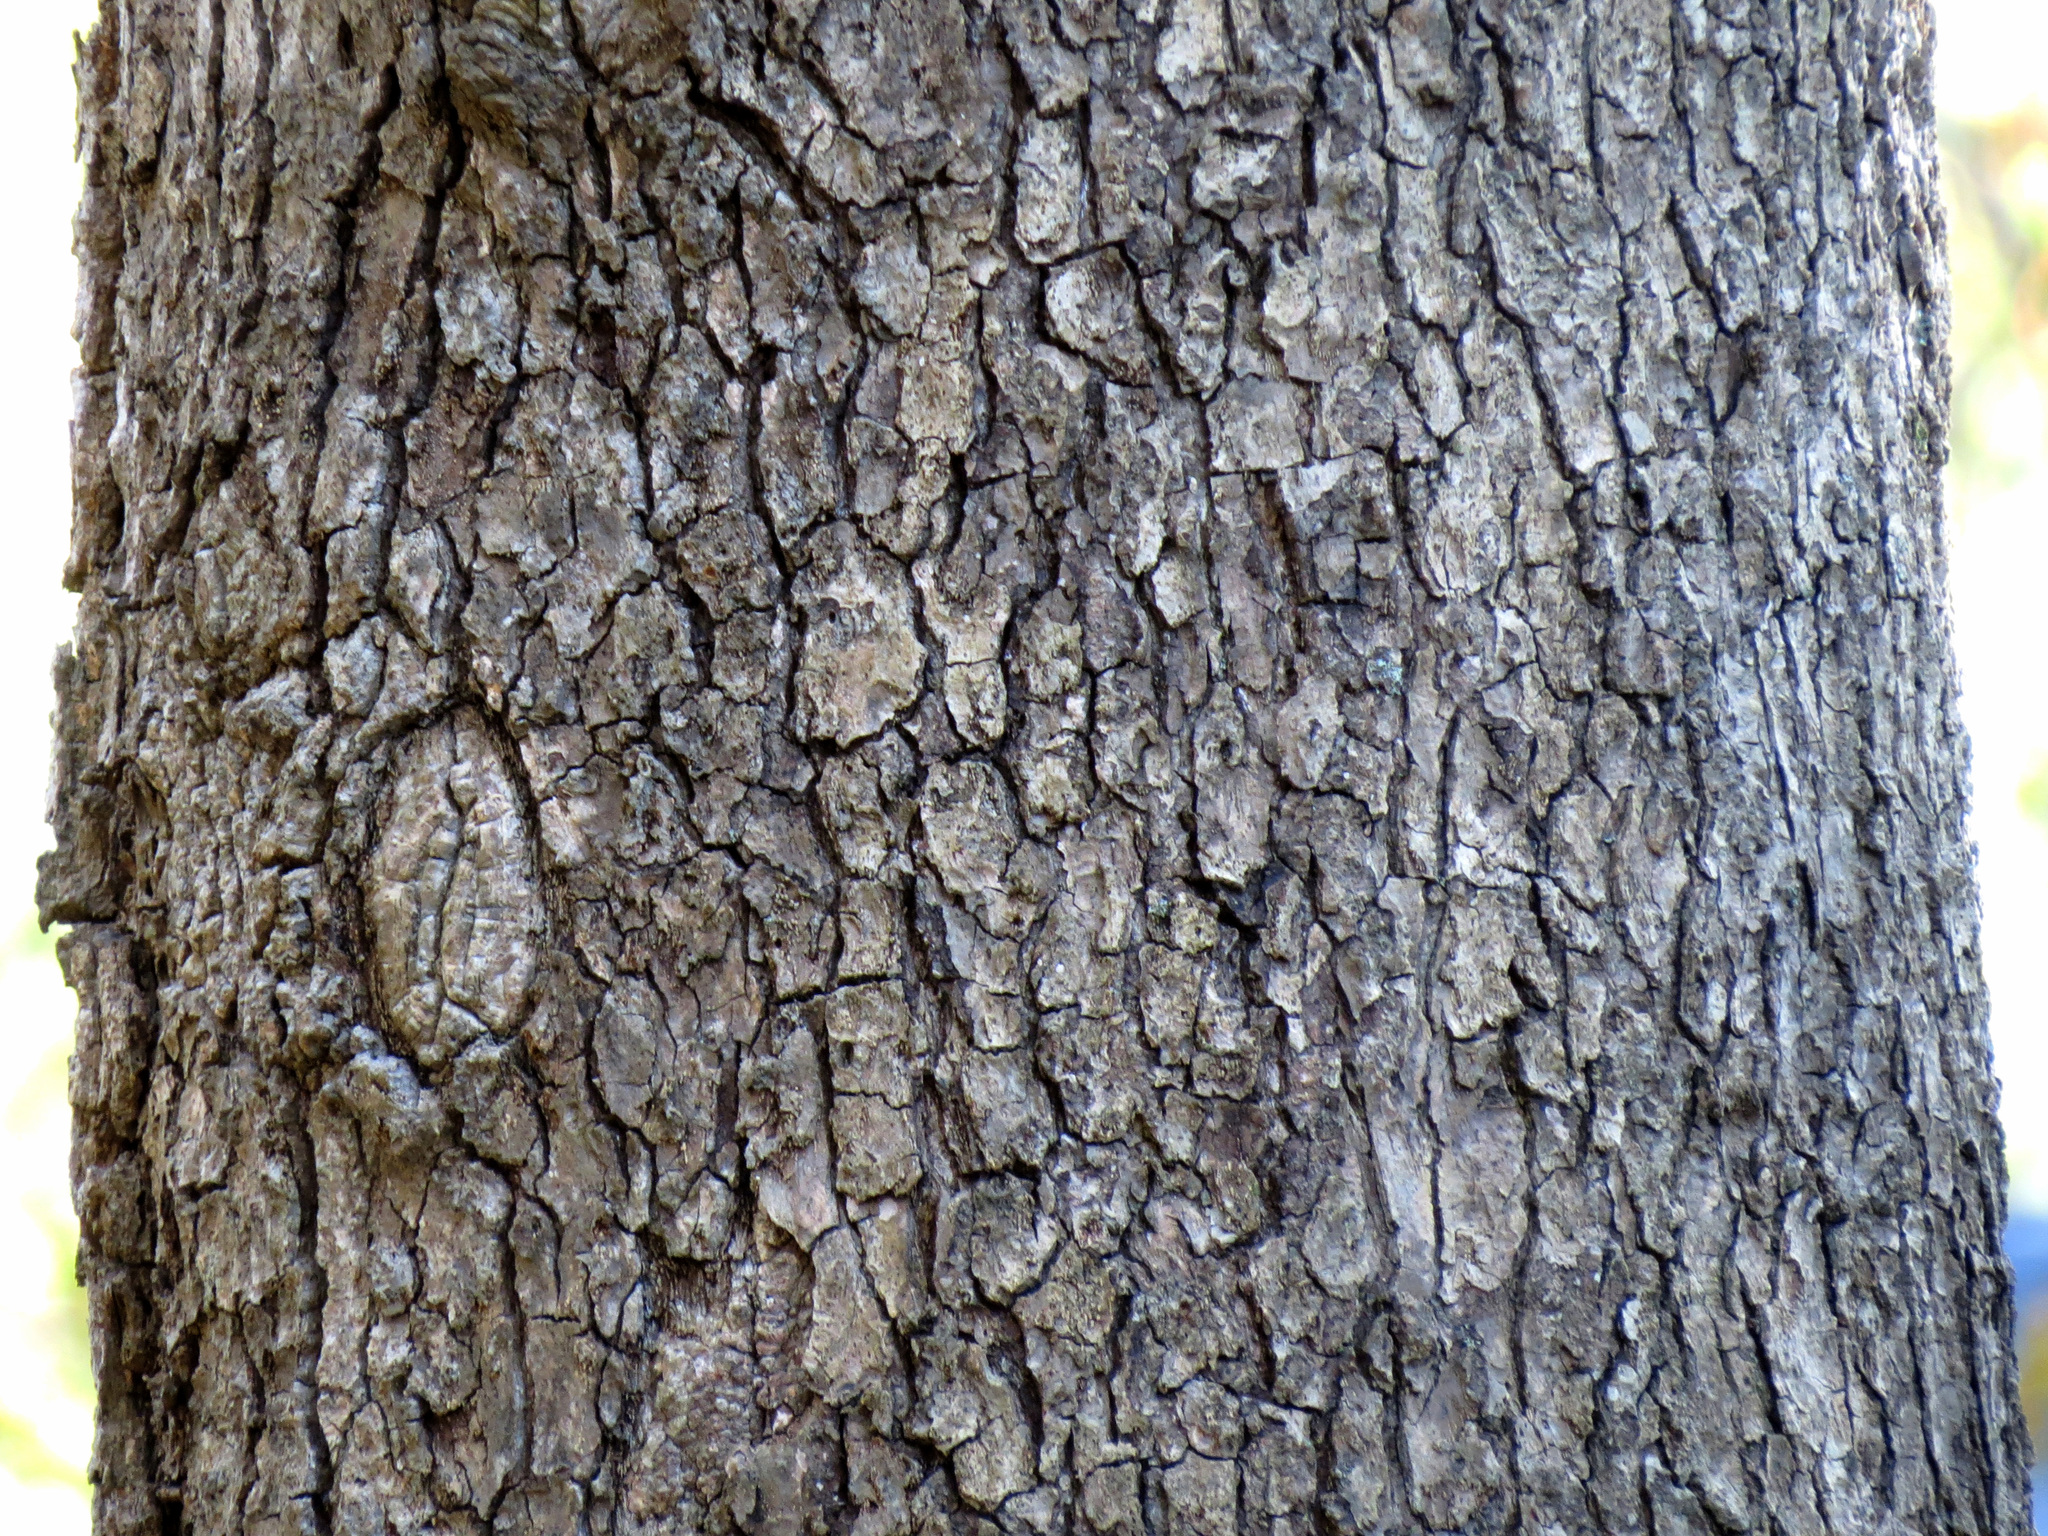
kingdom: Plantae
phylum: Tracheophyta
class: Magnoliopsida
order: Cornales
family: Nyssaceae
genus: Nyssa
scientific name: Nyssa sylvatica
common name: Black tupelo
